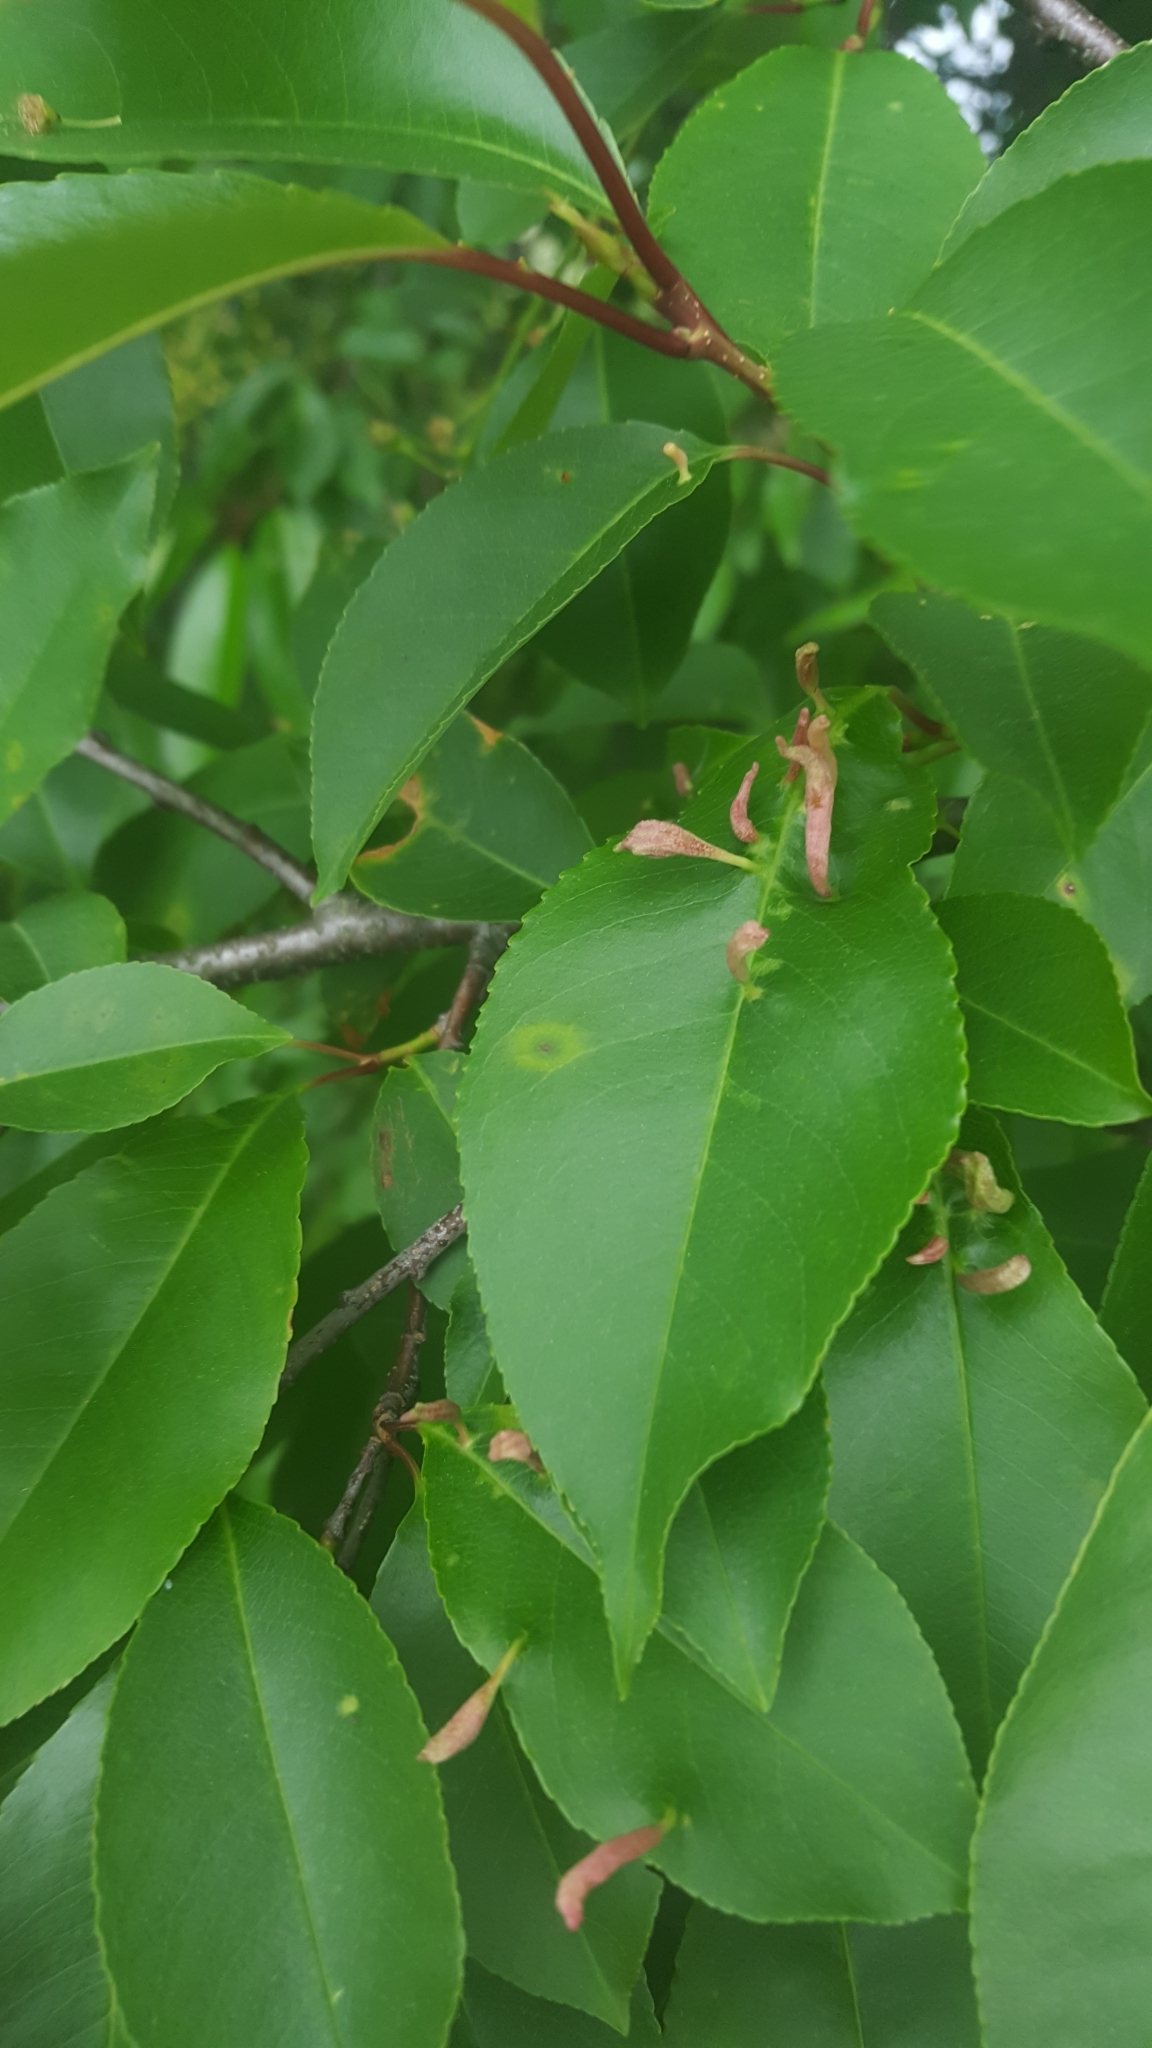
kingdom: Animalia
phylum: Arthropoda
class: Arachnida
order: Trombidiformes
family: Eriophyidae
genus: Eriophyes
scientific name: Eriophyes
